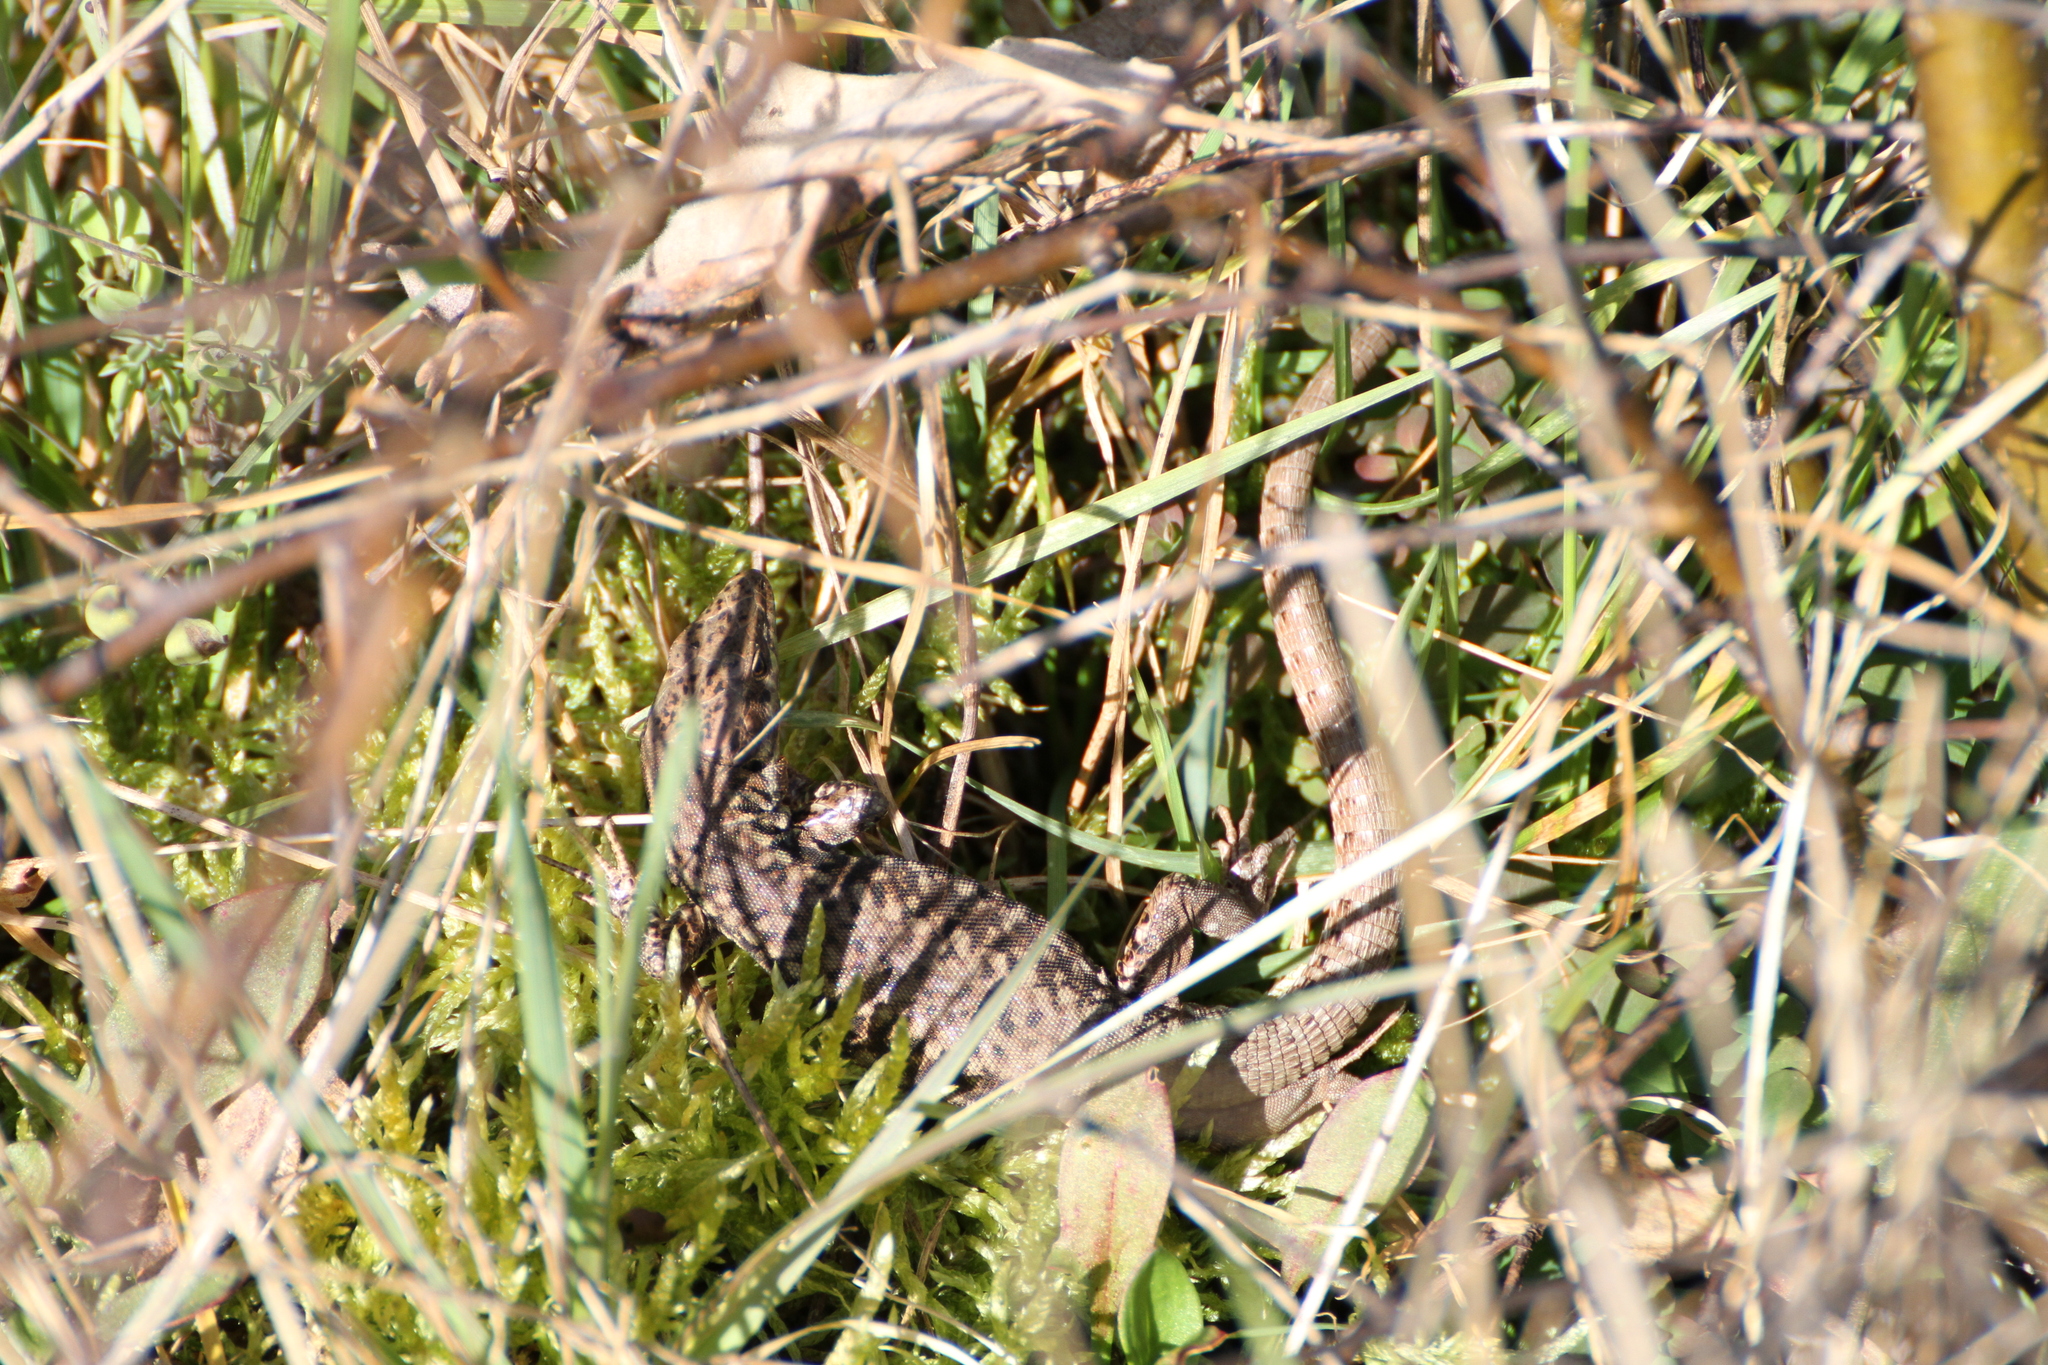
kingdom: Animalia
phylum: Chordata
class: Squamata
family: Lacertidae
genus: Podarcis
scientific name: Podarcis muralis
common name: Common wall lizard
